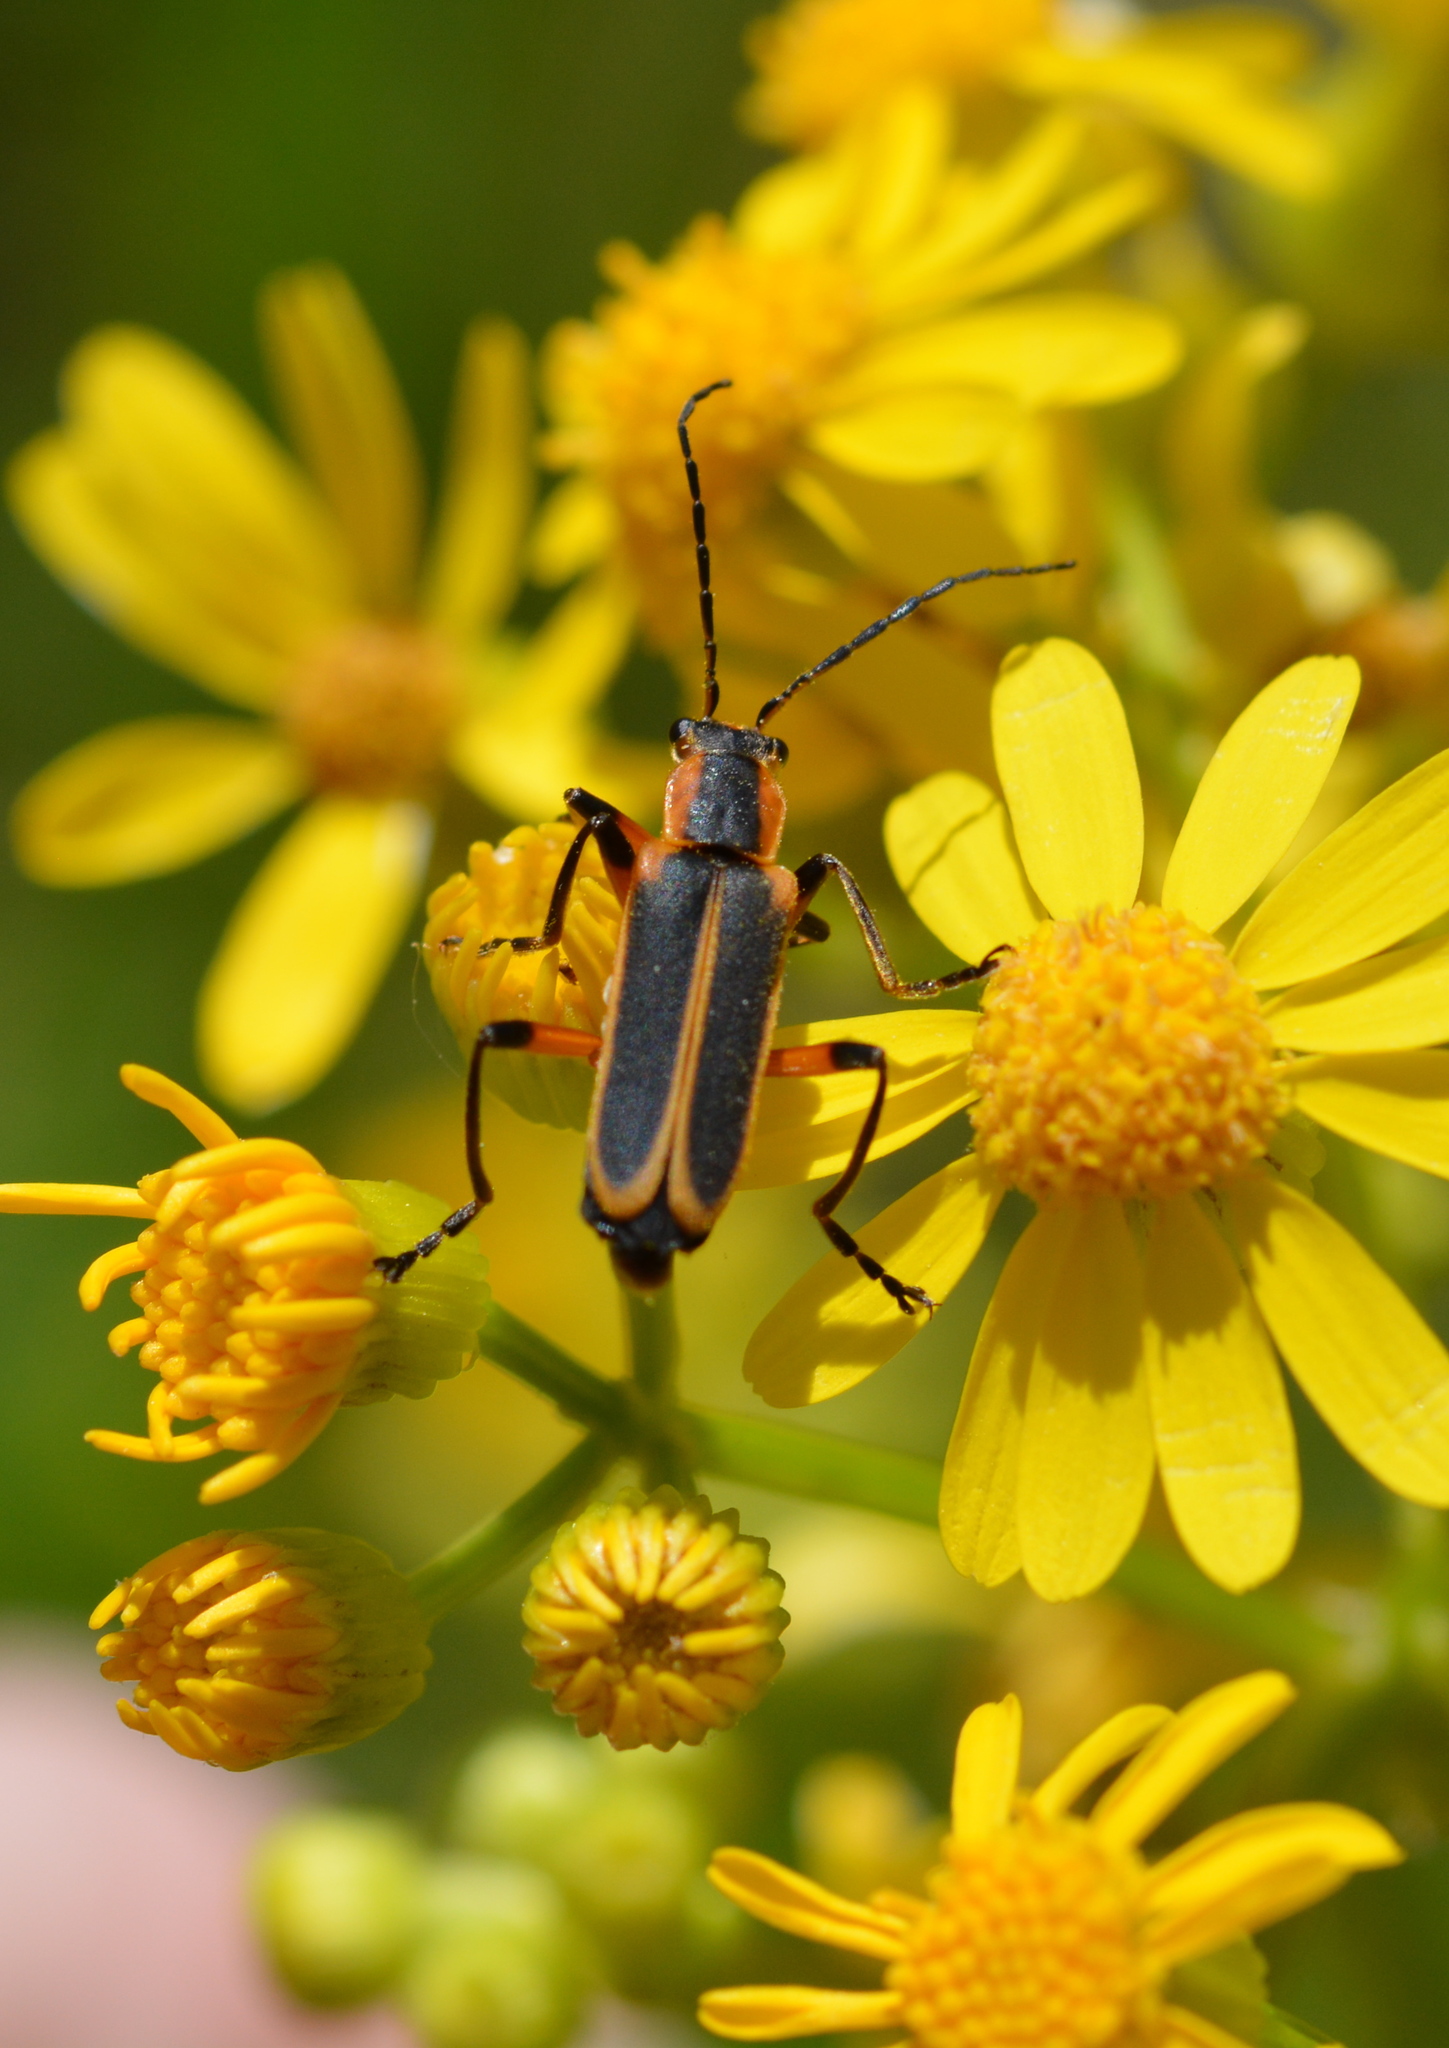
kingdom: Animalia
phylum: Arthropoda
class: Insecta
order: Coleoptera
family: Cantharidae
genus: Chauliognathus
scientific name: Chauliognathus marginatus
